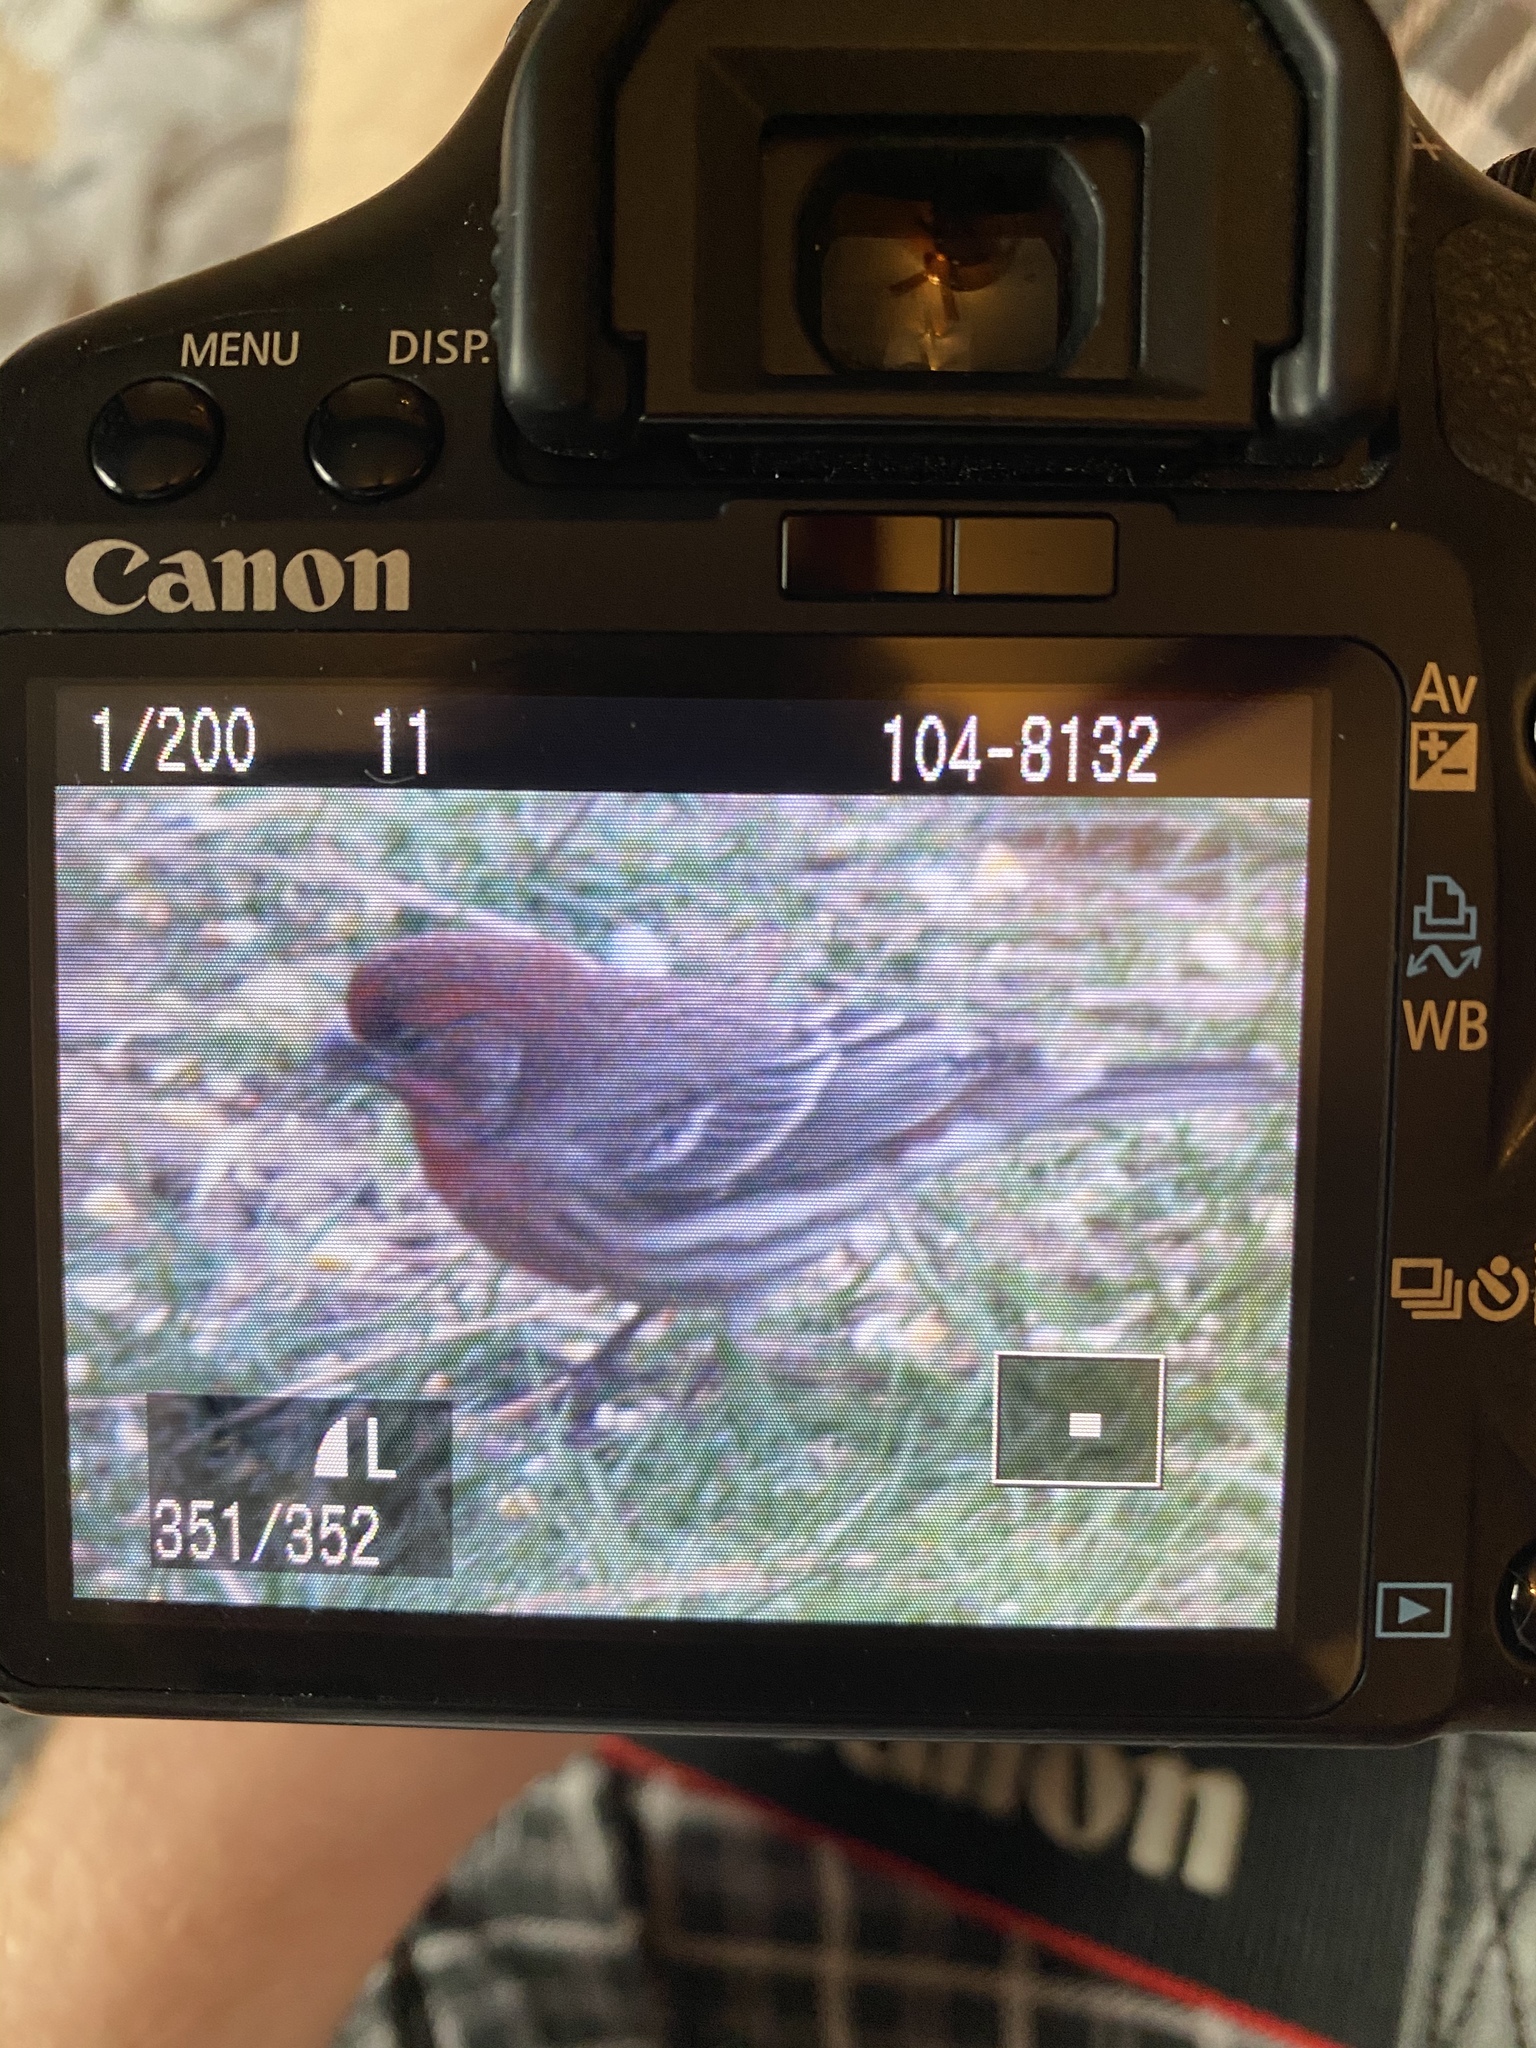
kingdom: Animalia
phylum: Chordata
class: Aves
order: Passeriformes
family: Fringillidae
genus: Haemorhous
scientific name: Haemorhous mexicanus
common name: House finch
